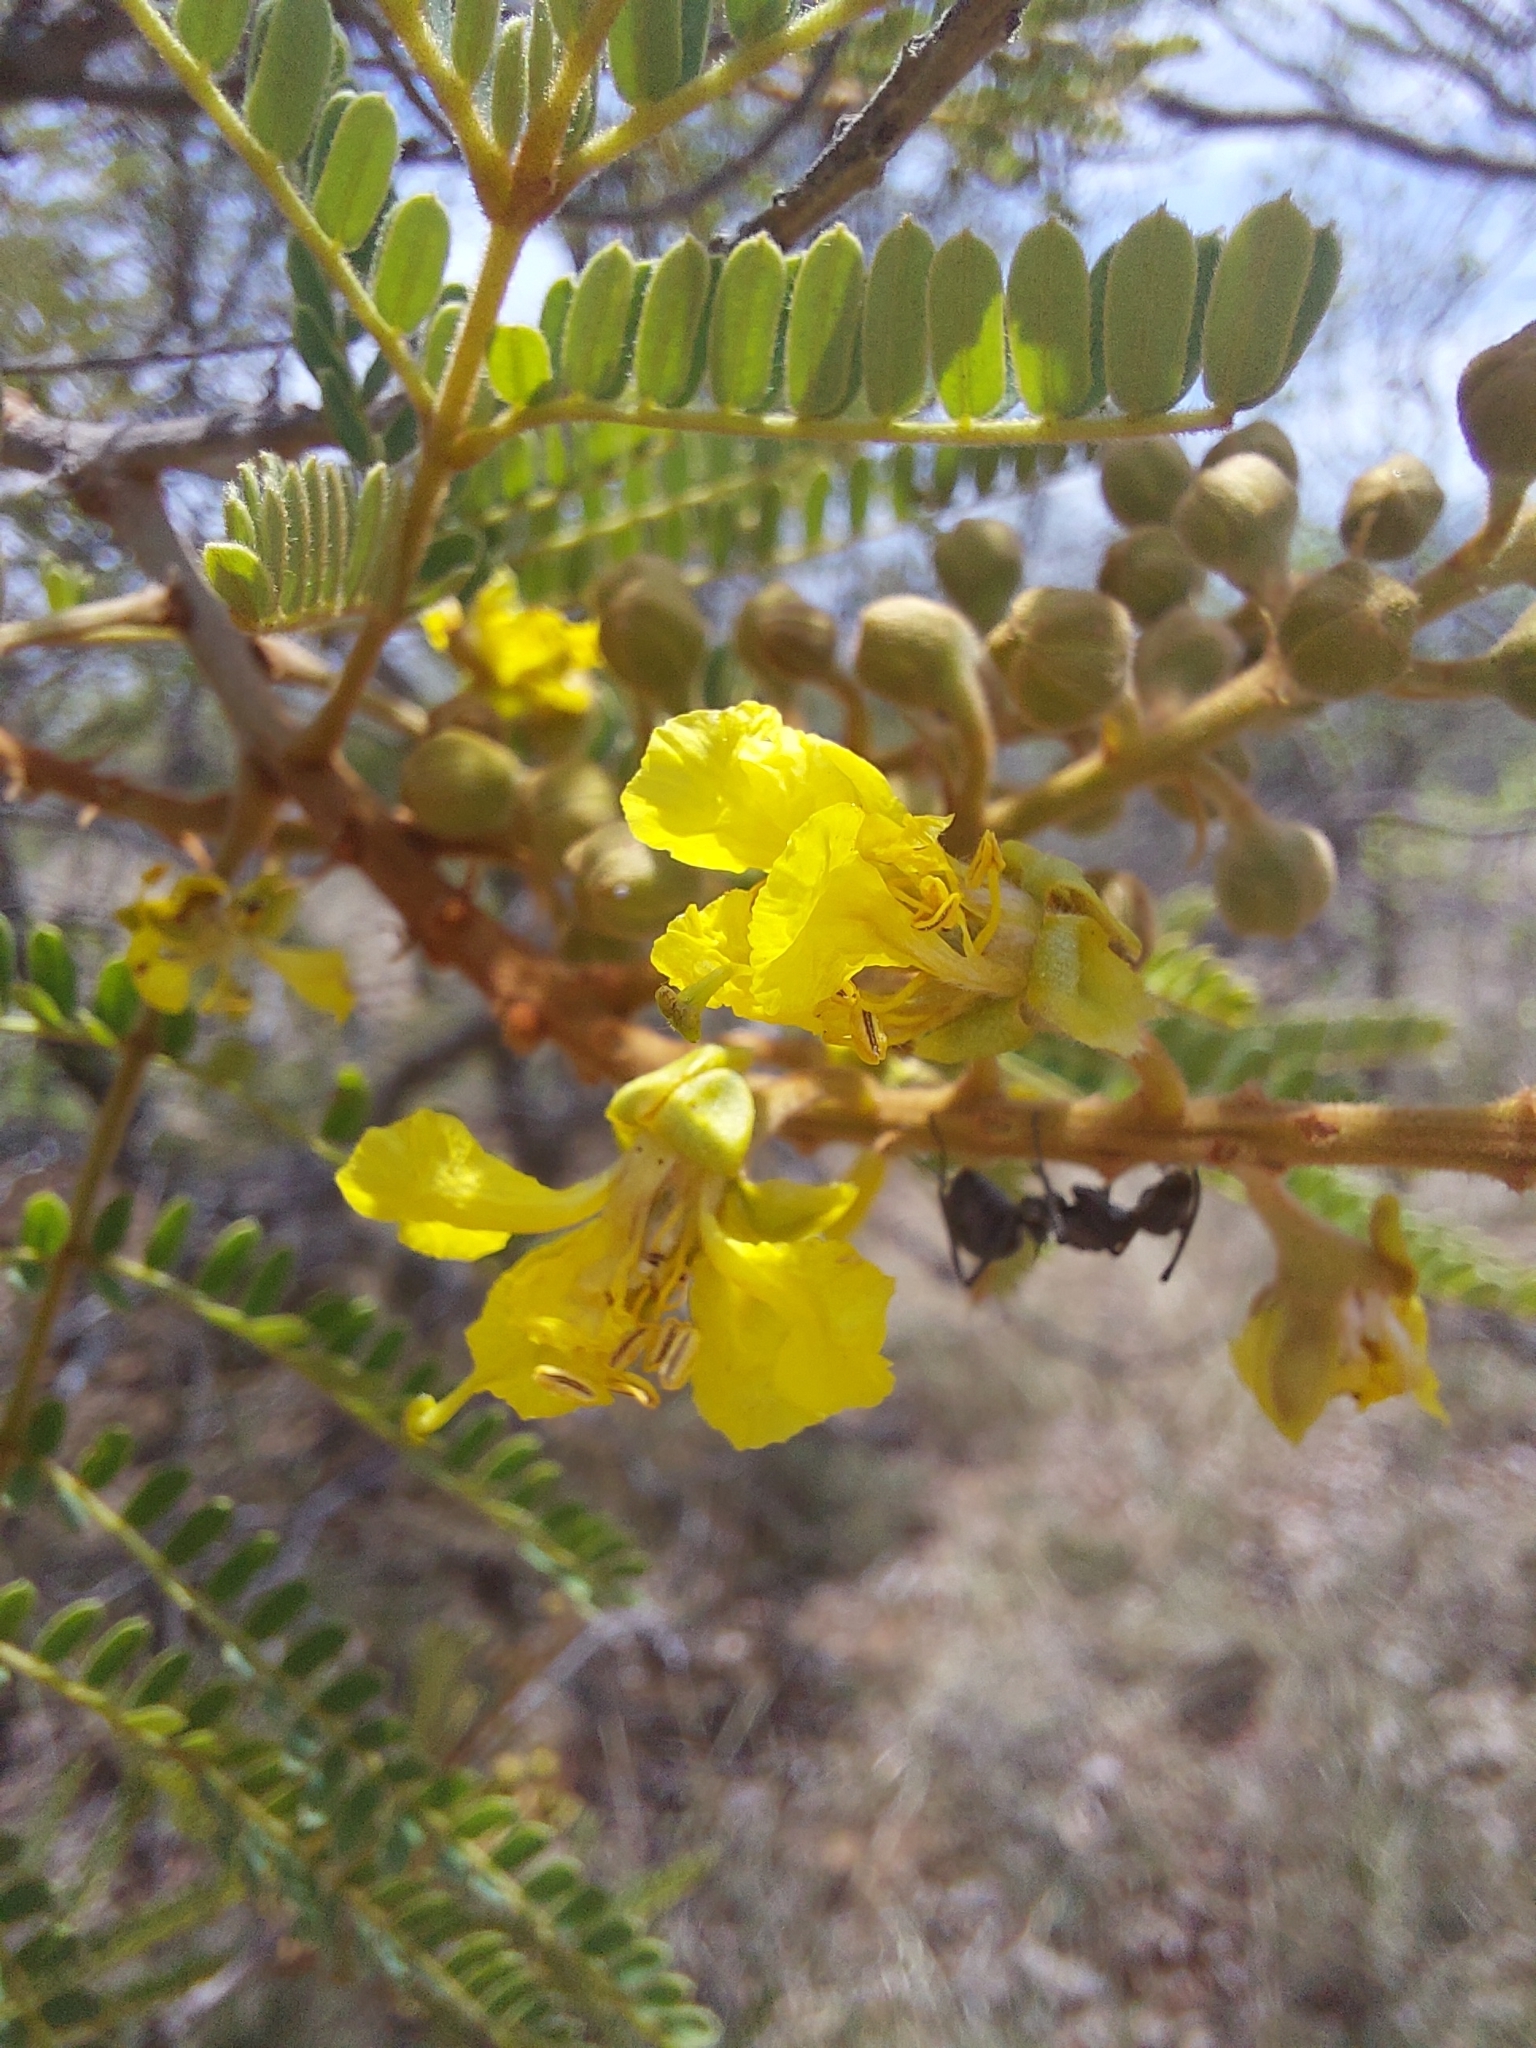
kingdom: Plantae
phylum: Tracheophyta
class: Magnoliopsida
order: Fabales
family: Fabaceae
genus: Peltophorum
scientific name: Peltophorum africanum
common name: African black wattle
